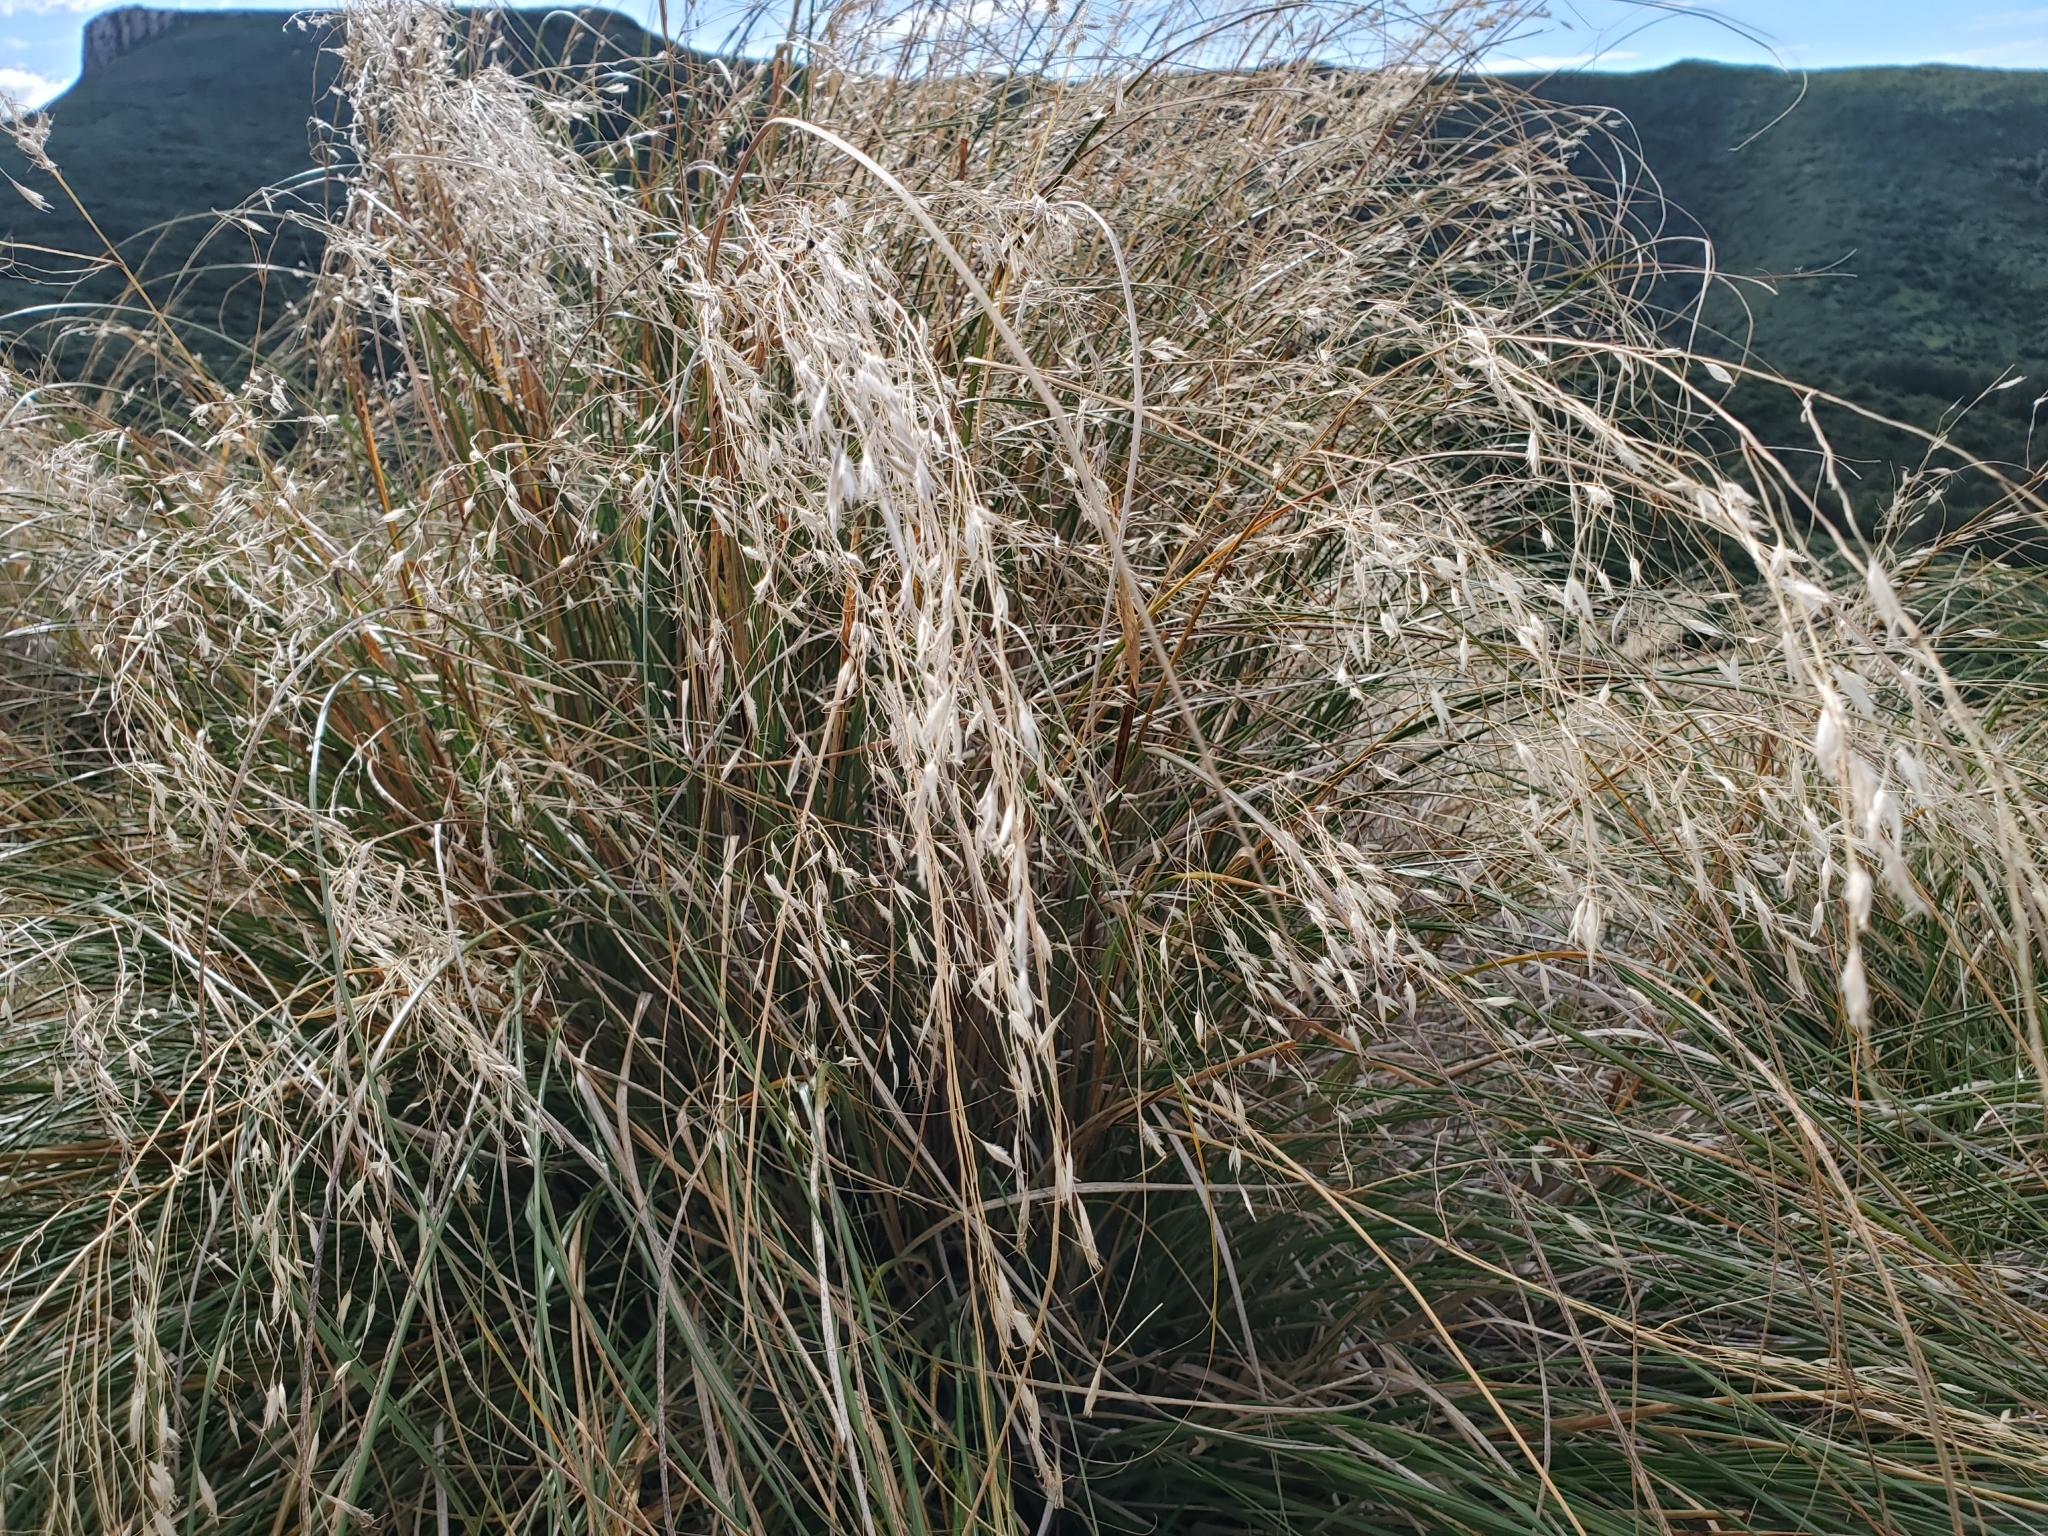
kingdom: Plantae
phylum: Tracheophyta
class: Liliopsida
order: Poales
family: Poaceae
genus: Chionochloa
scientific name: Chionochloa rigida
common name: Narrow leaved snow tussock
